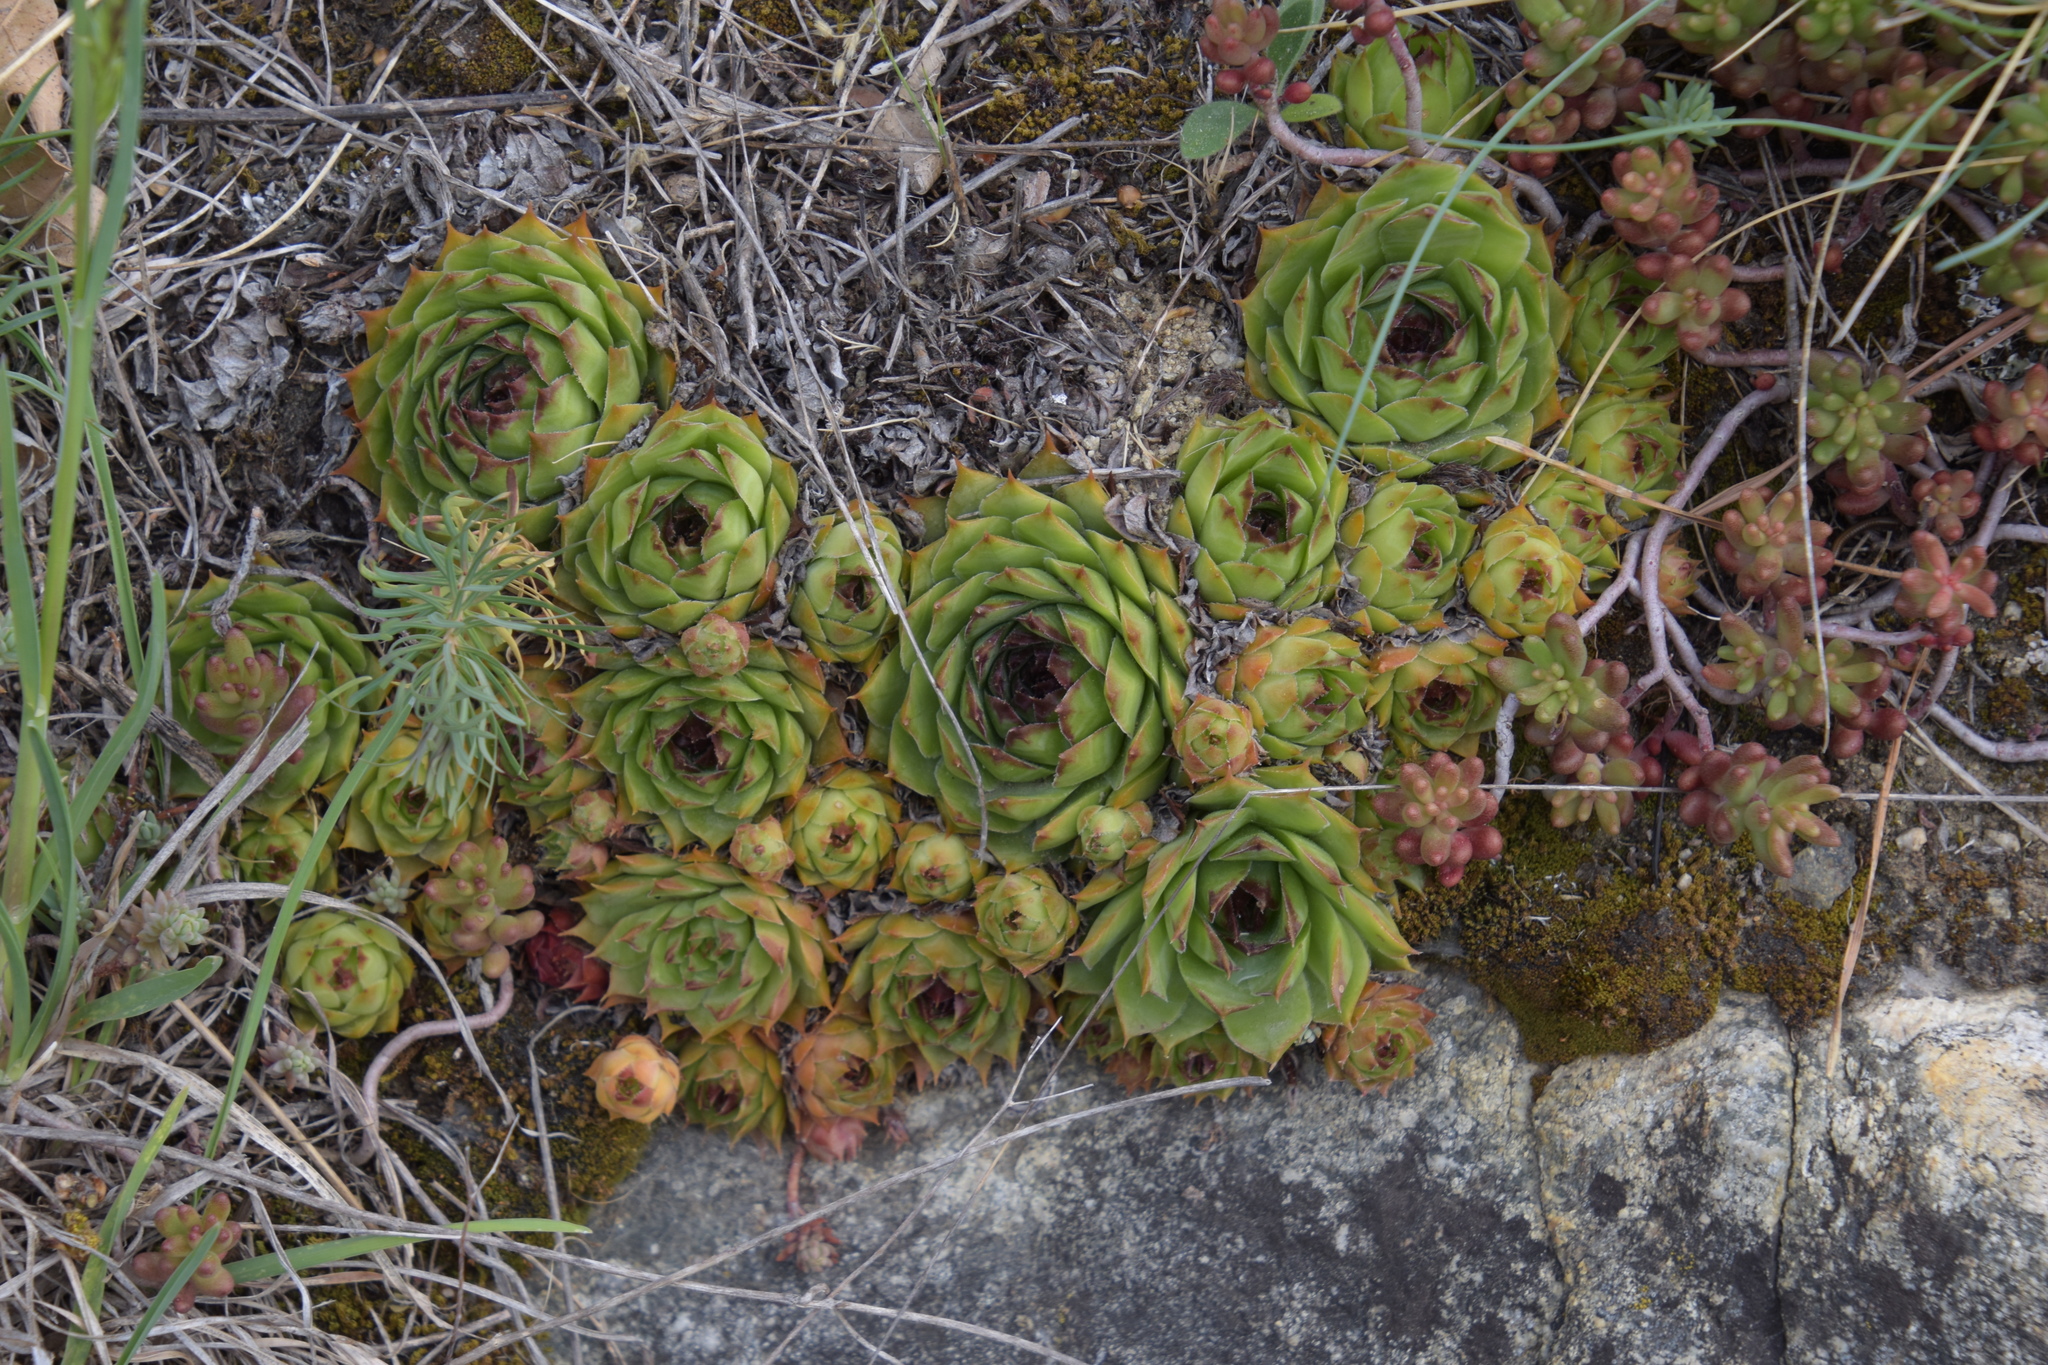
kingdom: Plantae
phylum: Tracheophyta
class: Magnoliopsida
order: Saxifragales
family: Crassulaceae
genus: Sempervivum
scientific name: Sempervivum tectorum
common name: House-leek
